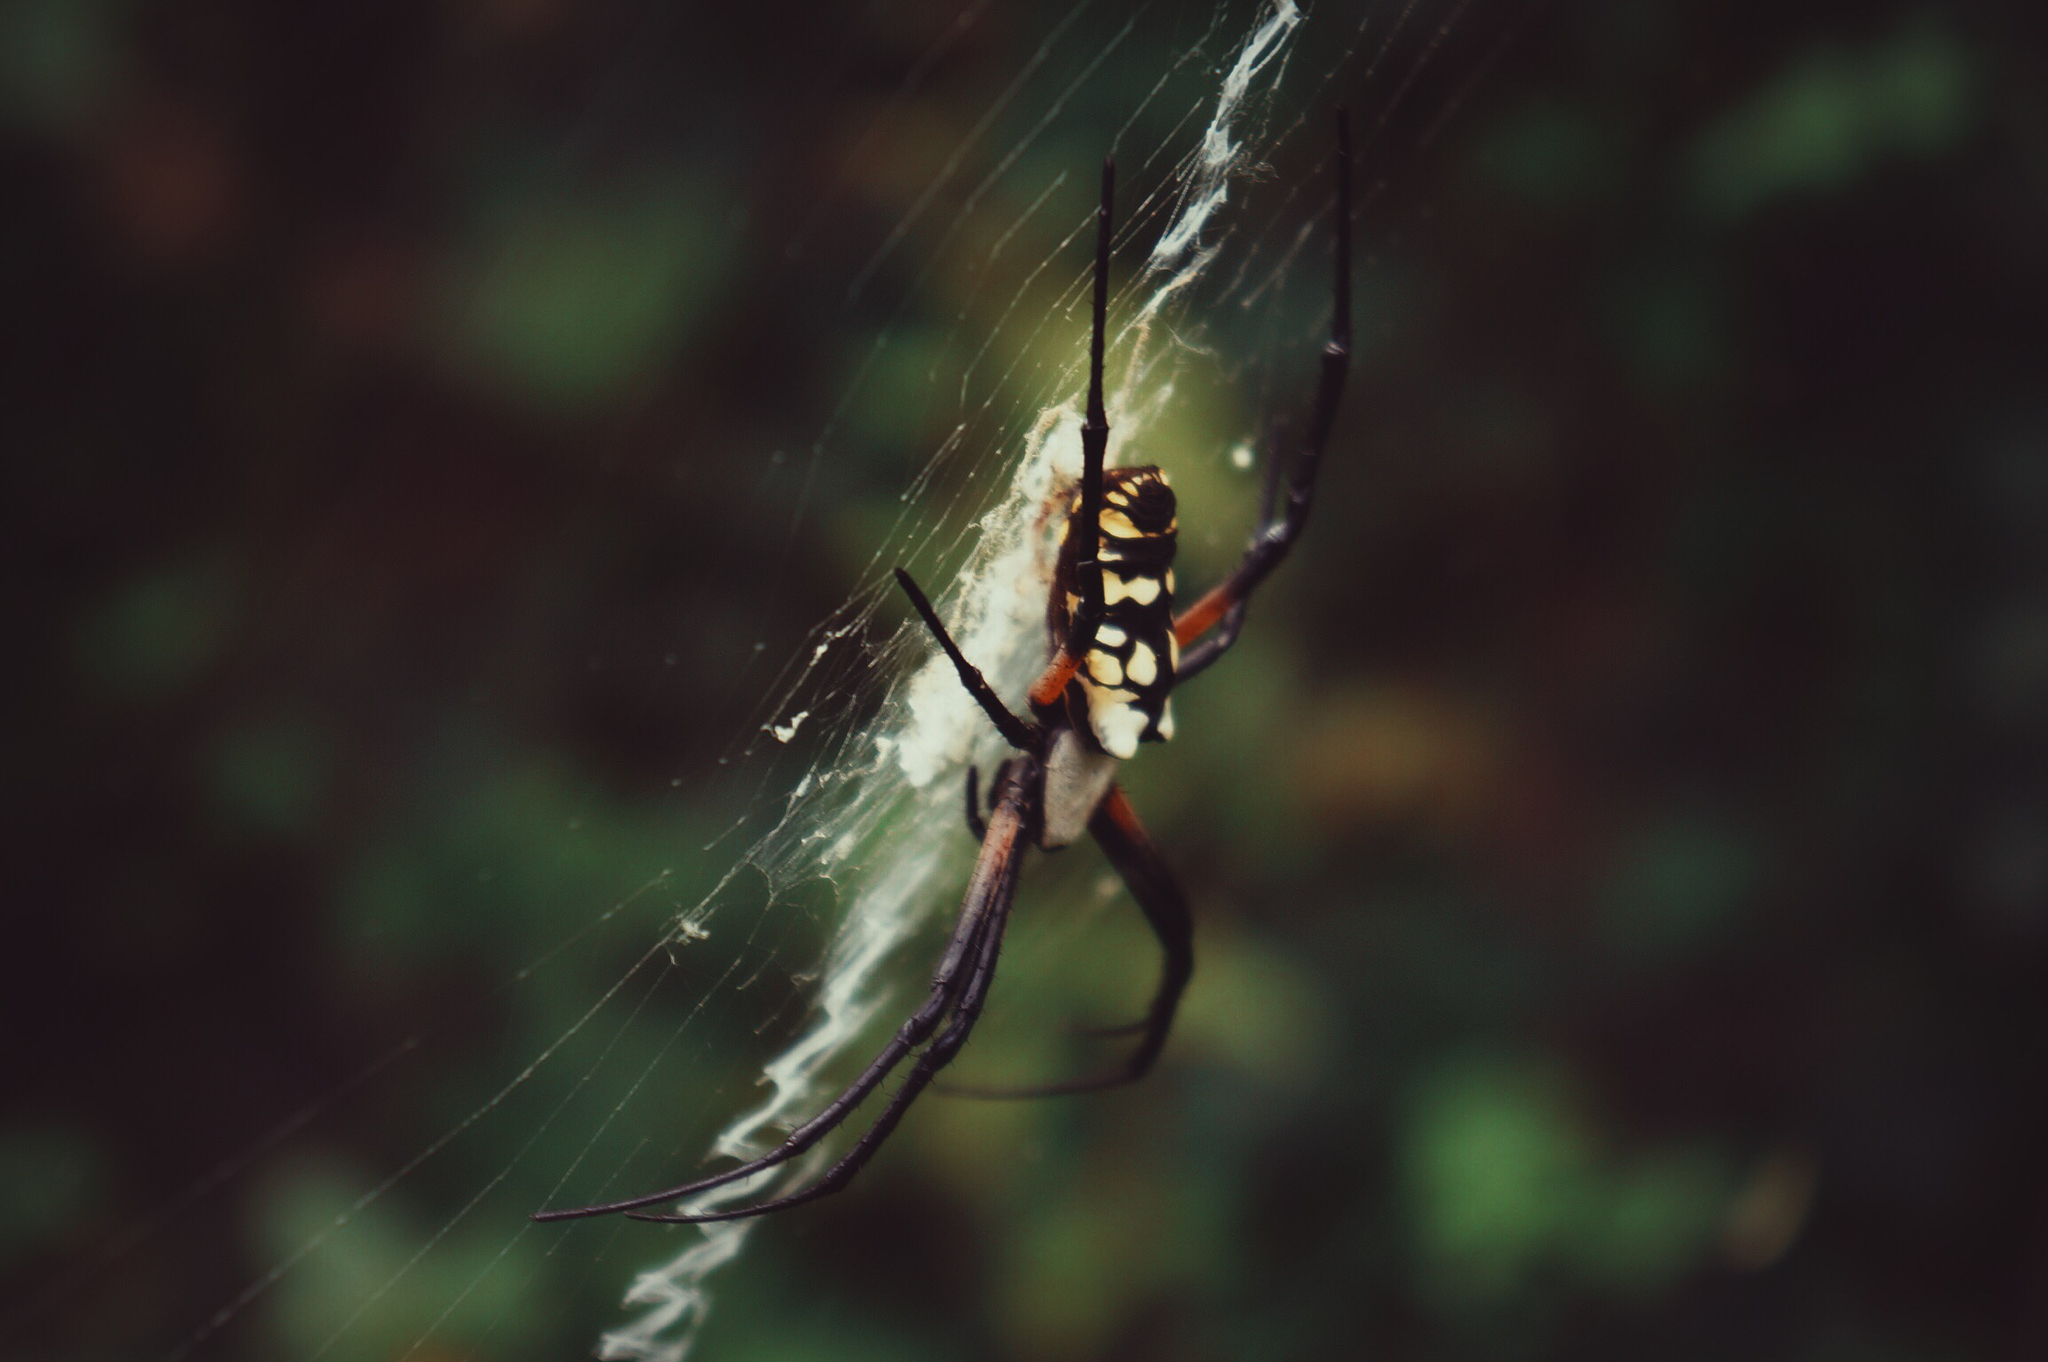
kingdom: Animalia
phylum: Arthropoda
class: Arachnida
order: Araneae
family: Araneidae
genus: Argiope
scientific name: Argiope aurantia
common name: Orb weavers
